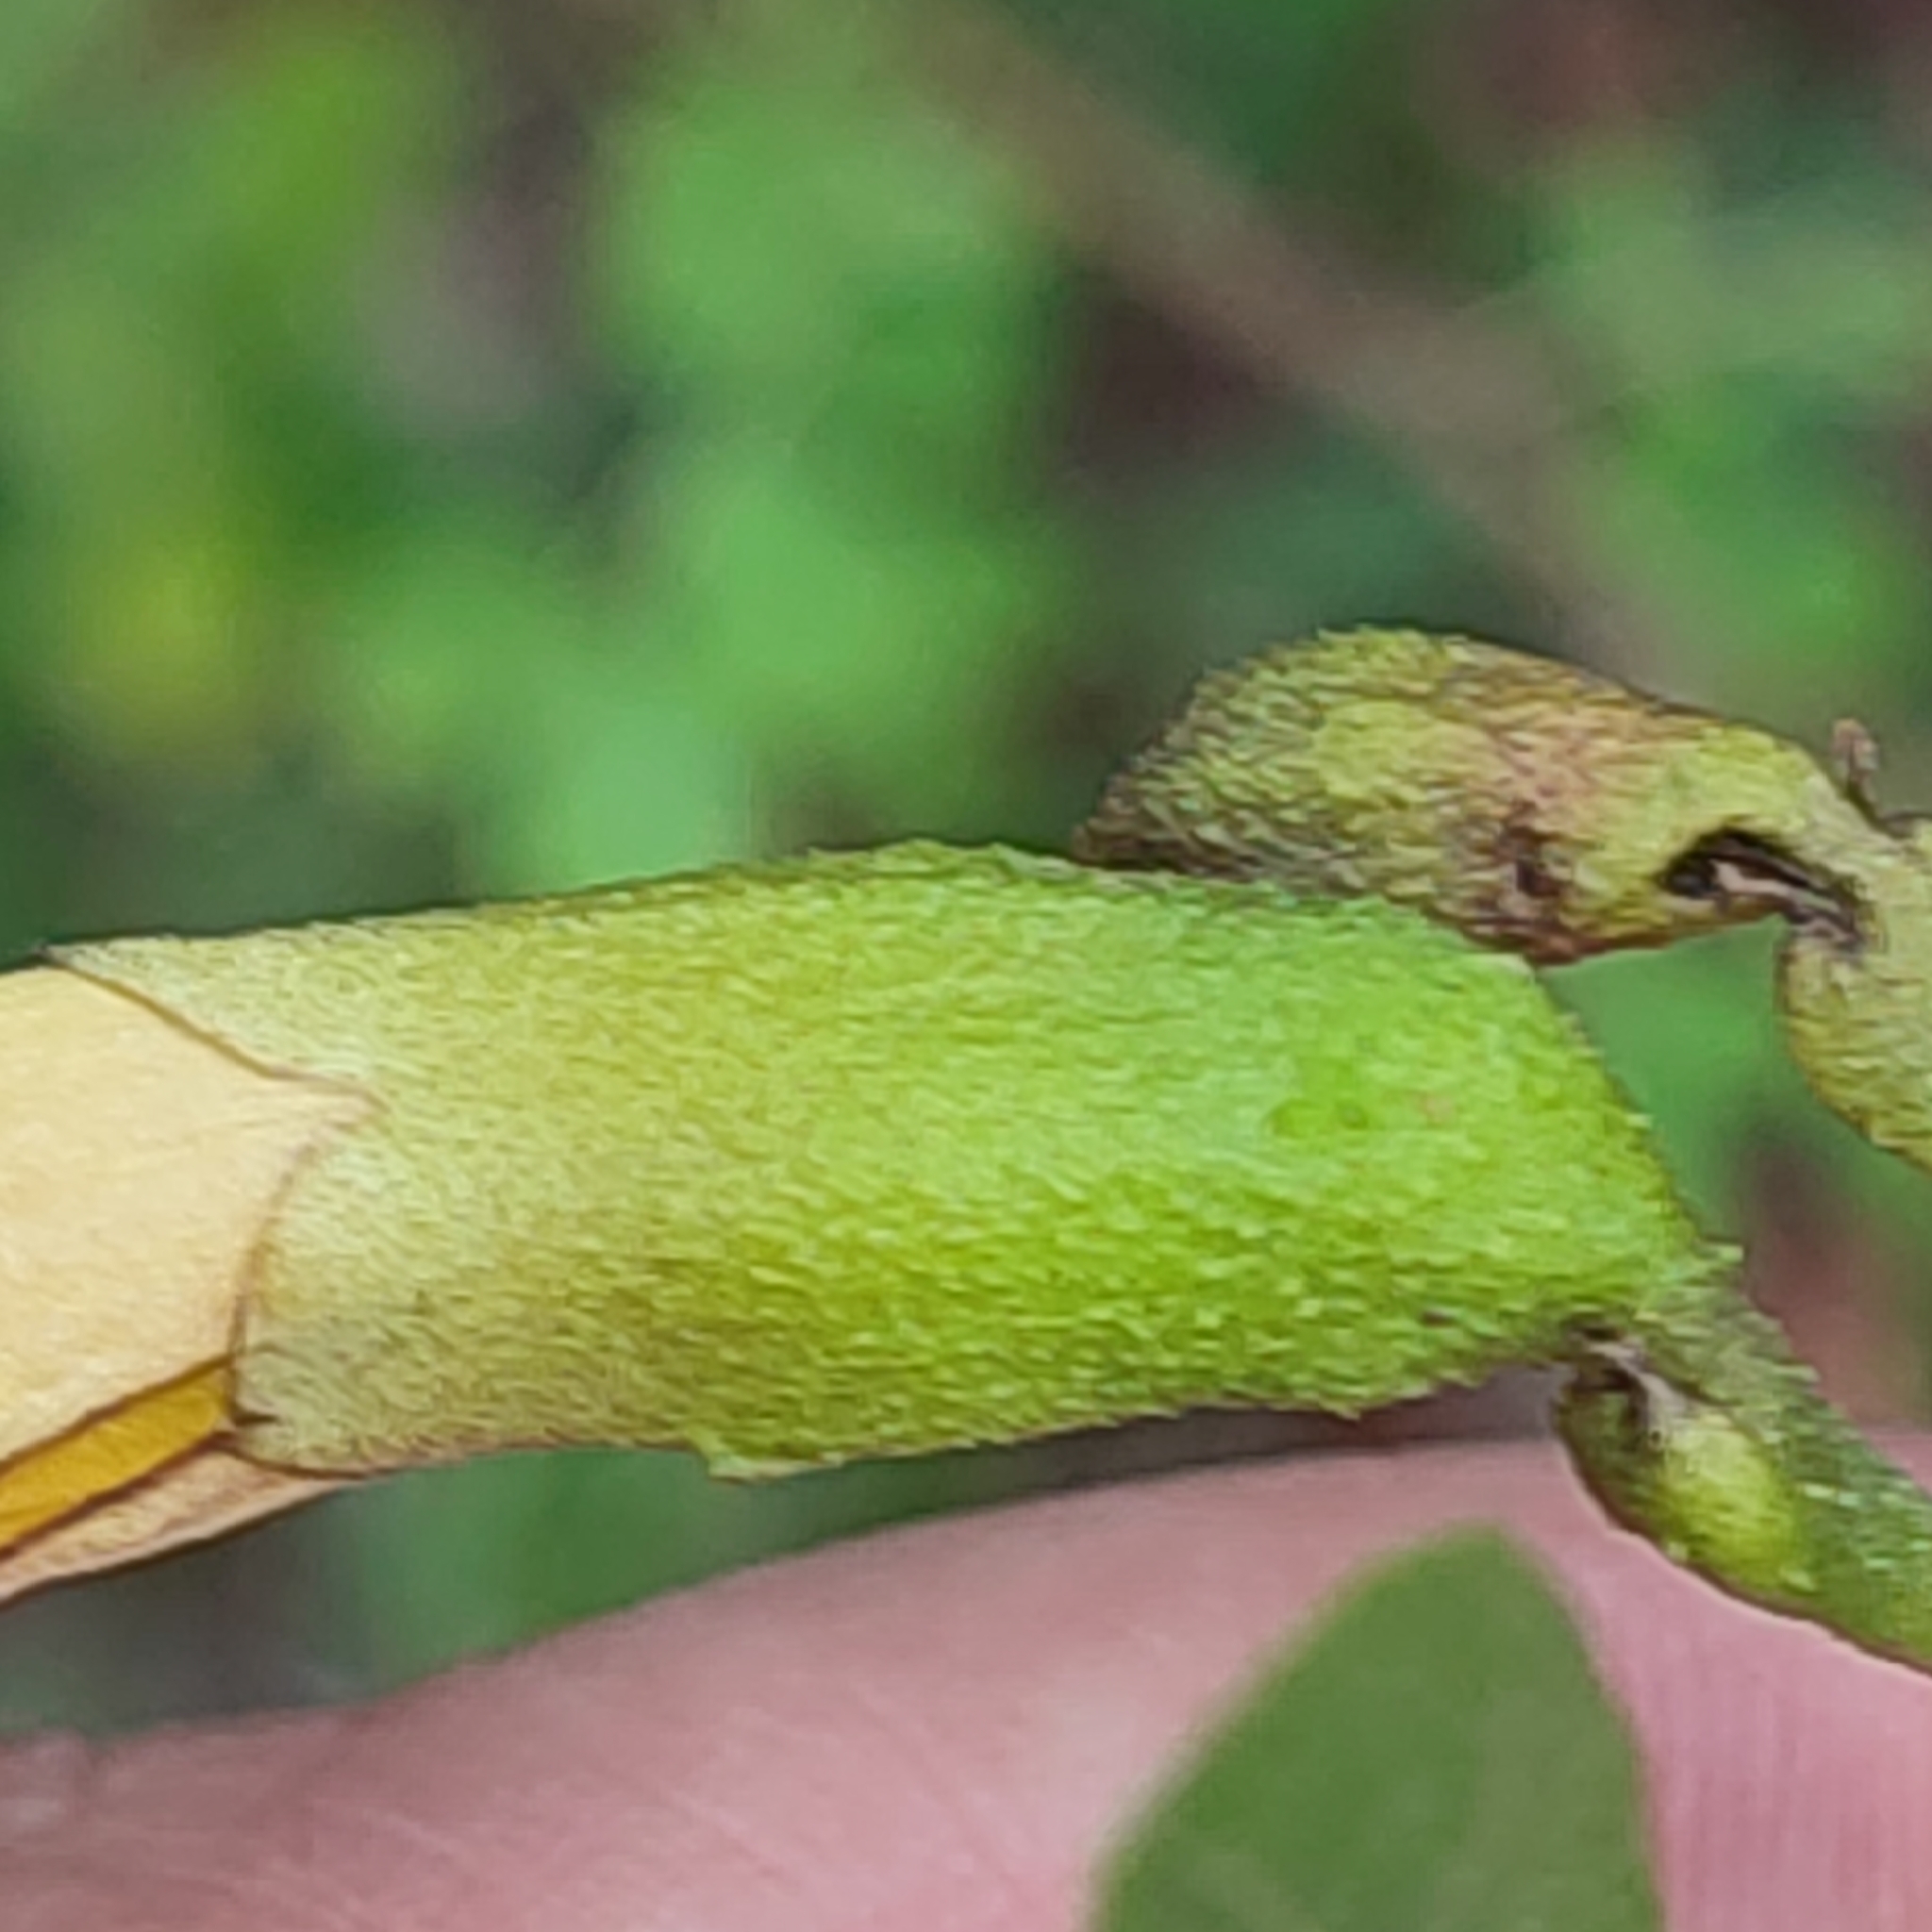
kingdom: Plantae
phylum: Tracheophyta
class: Magnoliopsida
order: Lamiales
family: Bignoniaceae
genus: Tabebuia
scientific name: Tabebuia heterophylla
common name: White cedar
